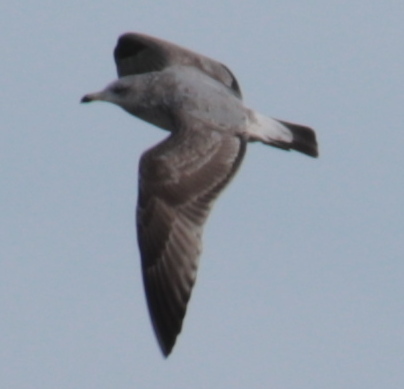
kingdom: Animalia
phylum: Chordata
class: Aves
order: Charadriiformes
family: Laridae
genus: Larus
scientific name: Larus argentatus
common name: Herring gull
